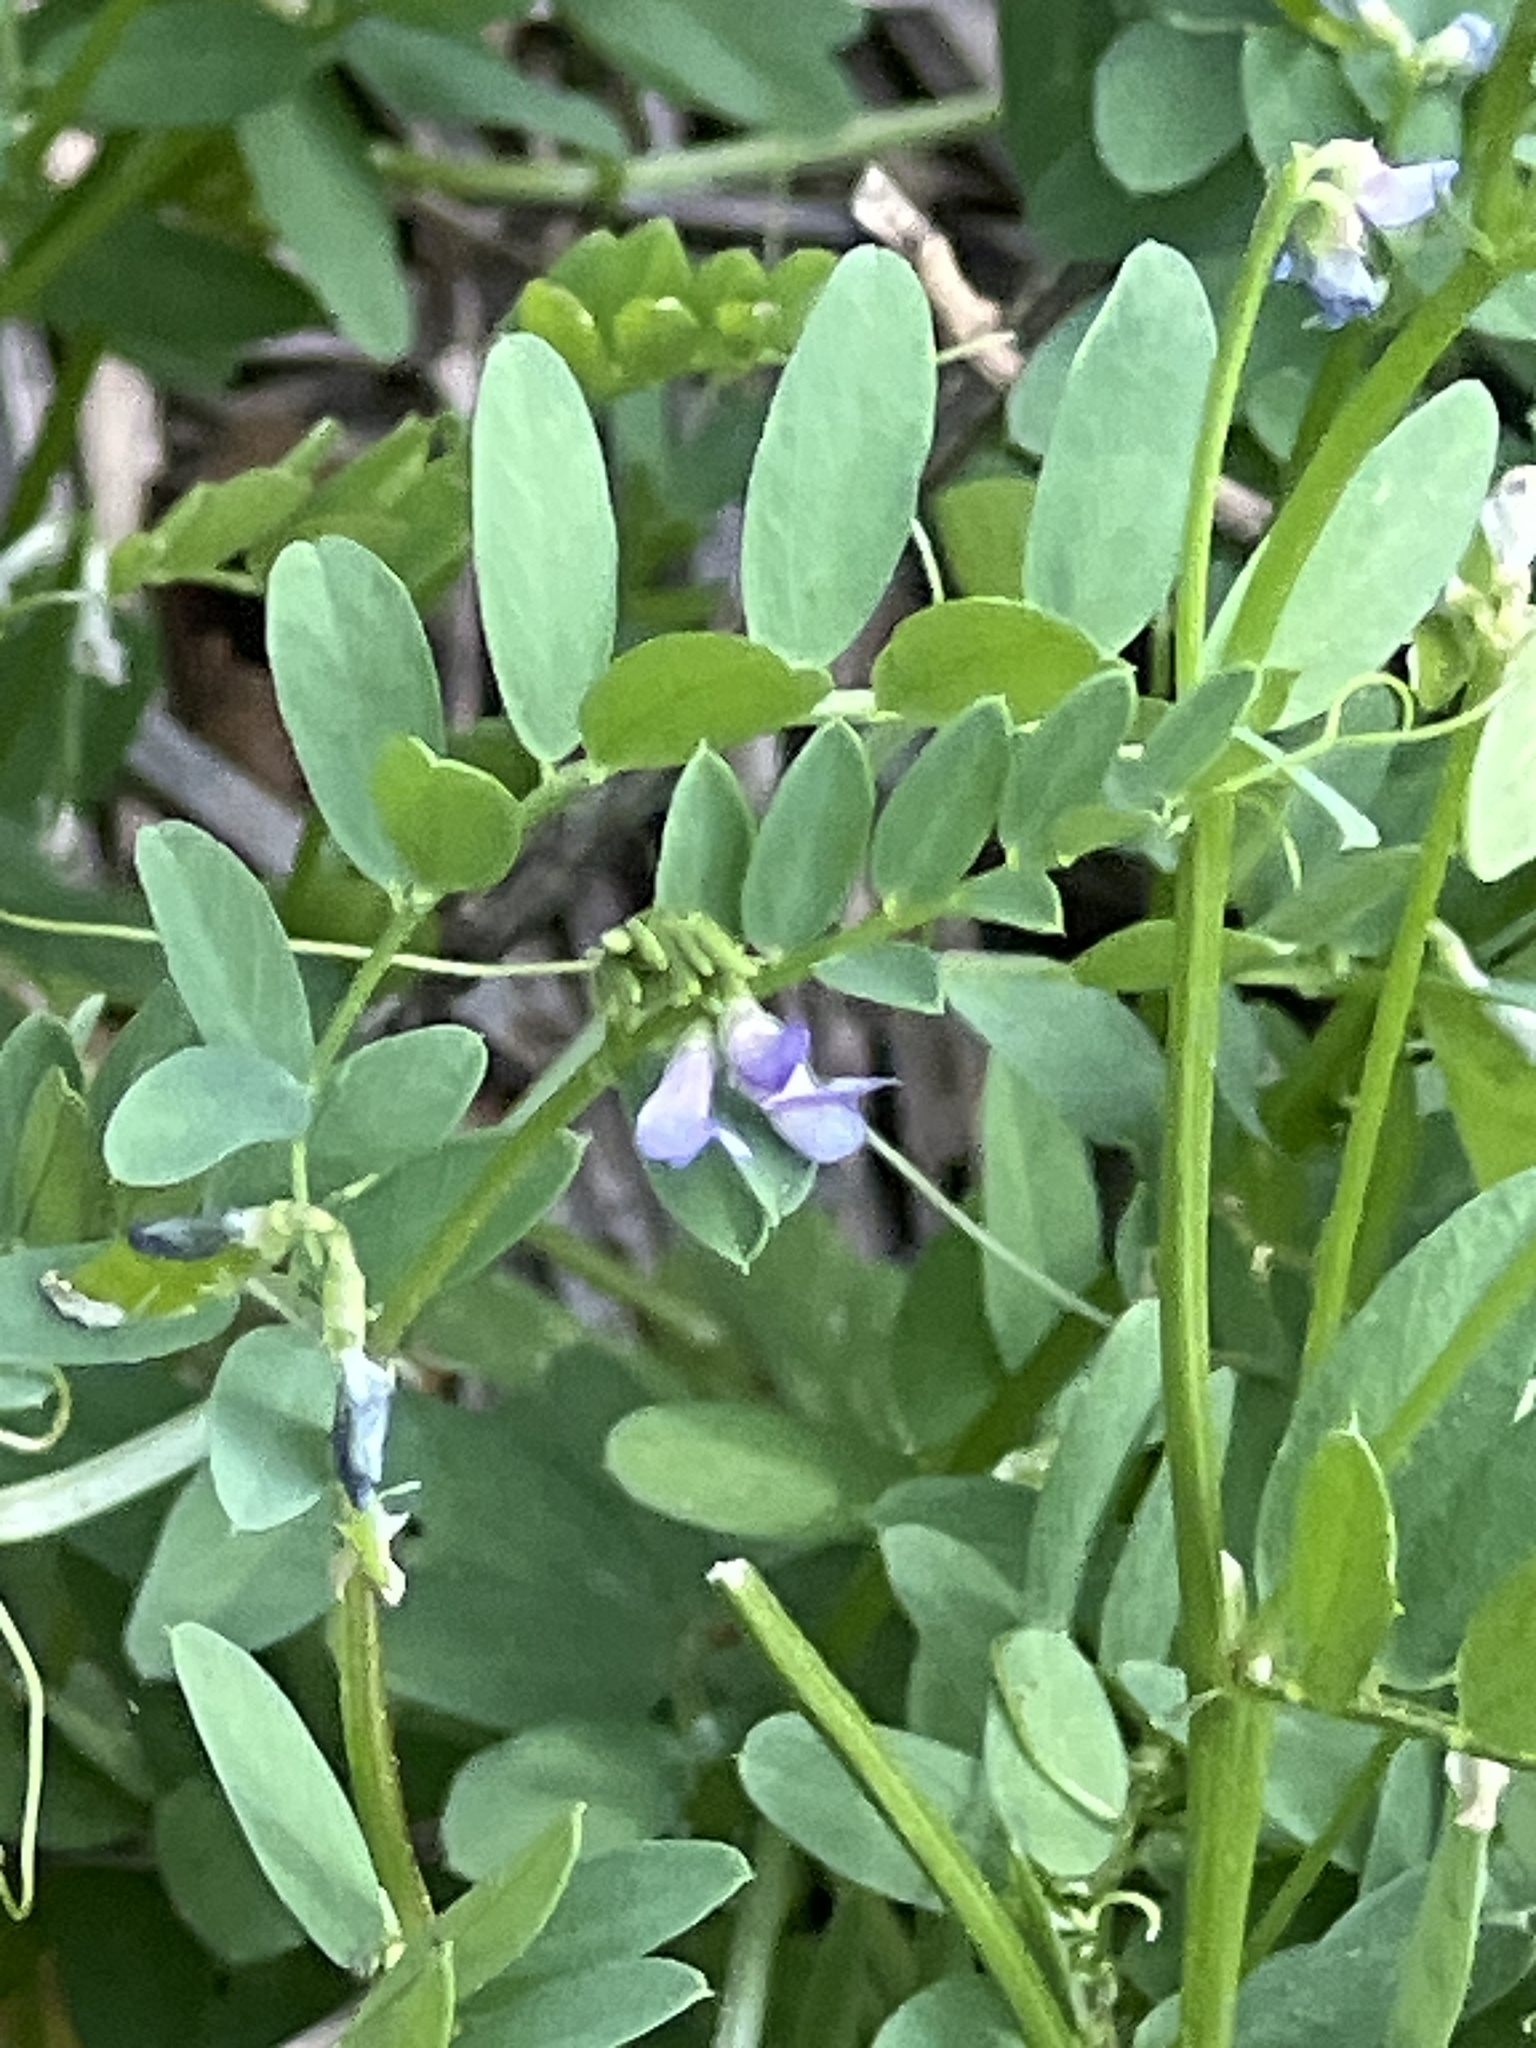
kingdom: Plantae
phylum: Tracheophyta
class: Magnoliopsida
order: Fabales
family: Fabaceae
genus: Vicia
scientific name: Vicia ludoviciana
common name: Louisiana vetch
